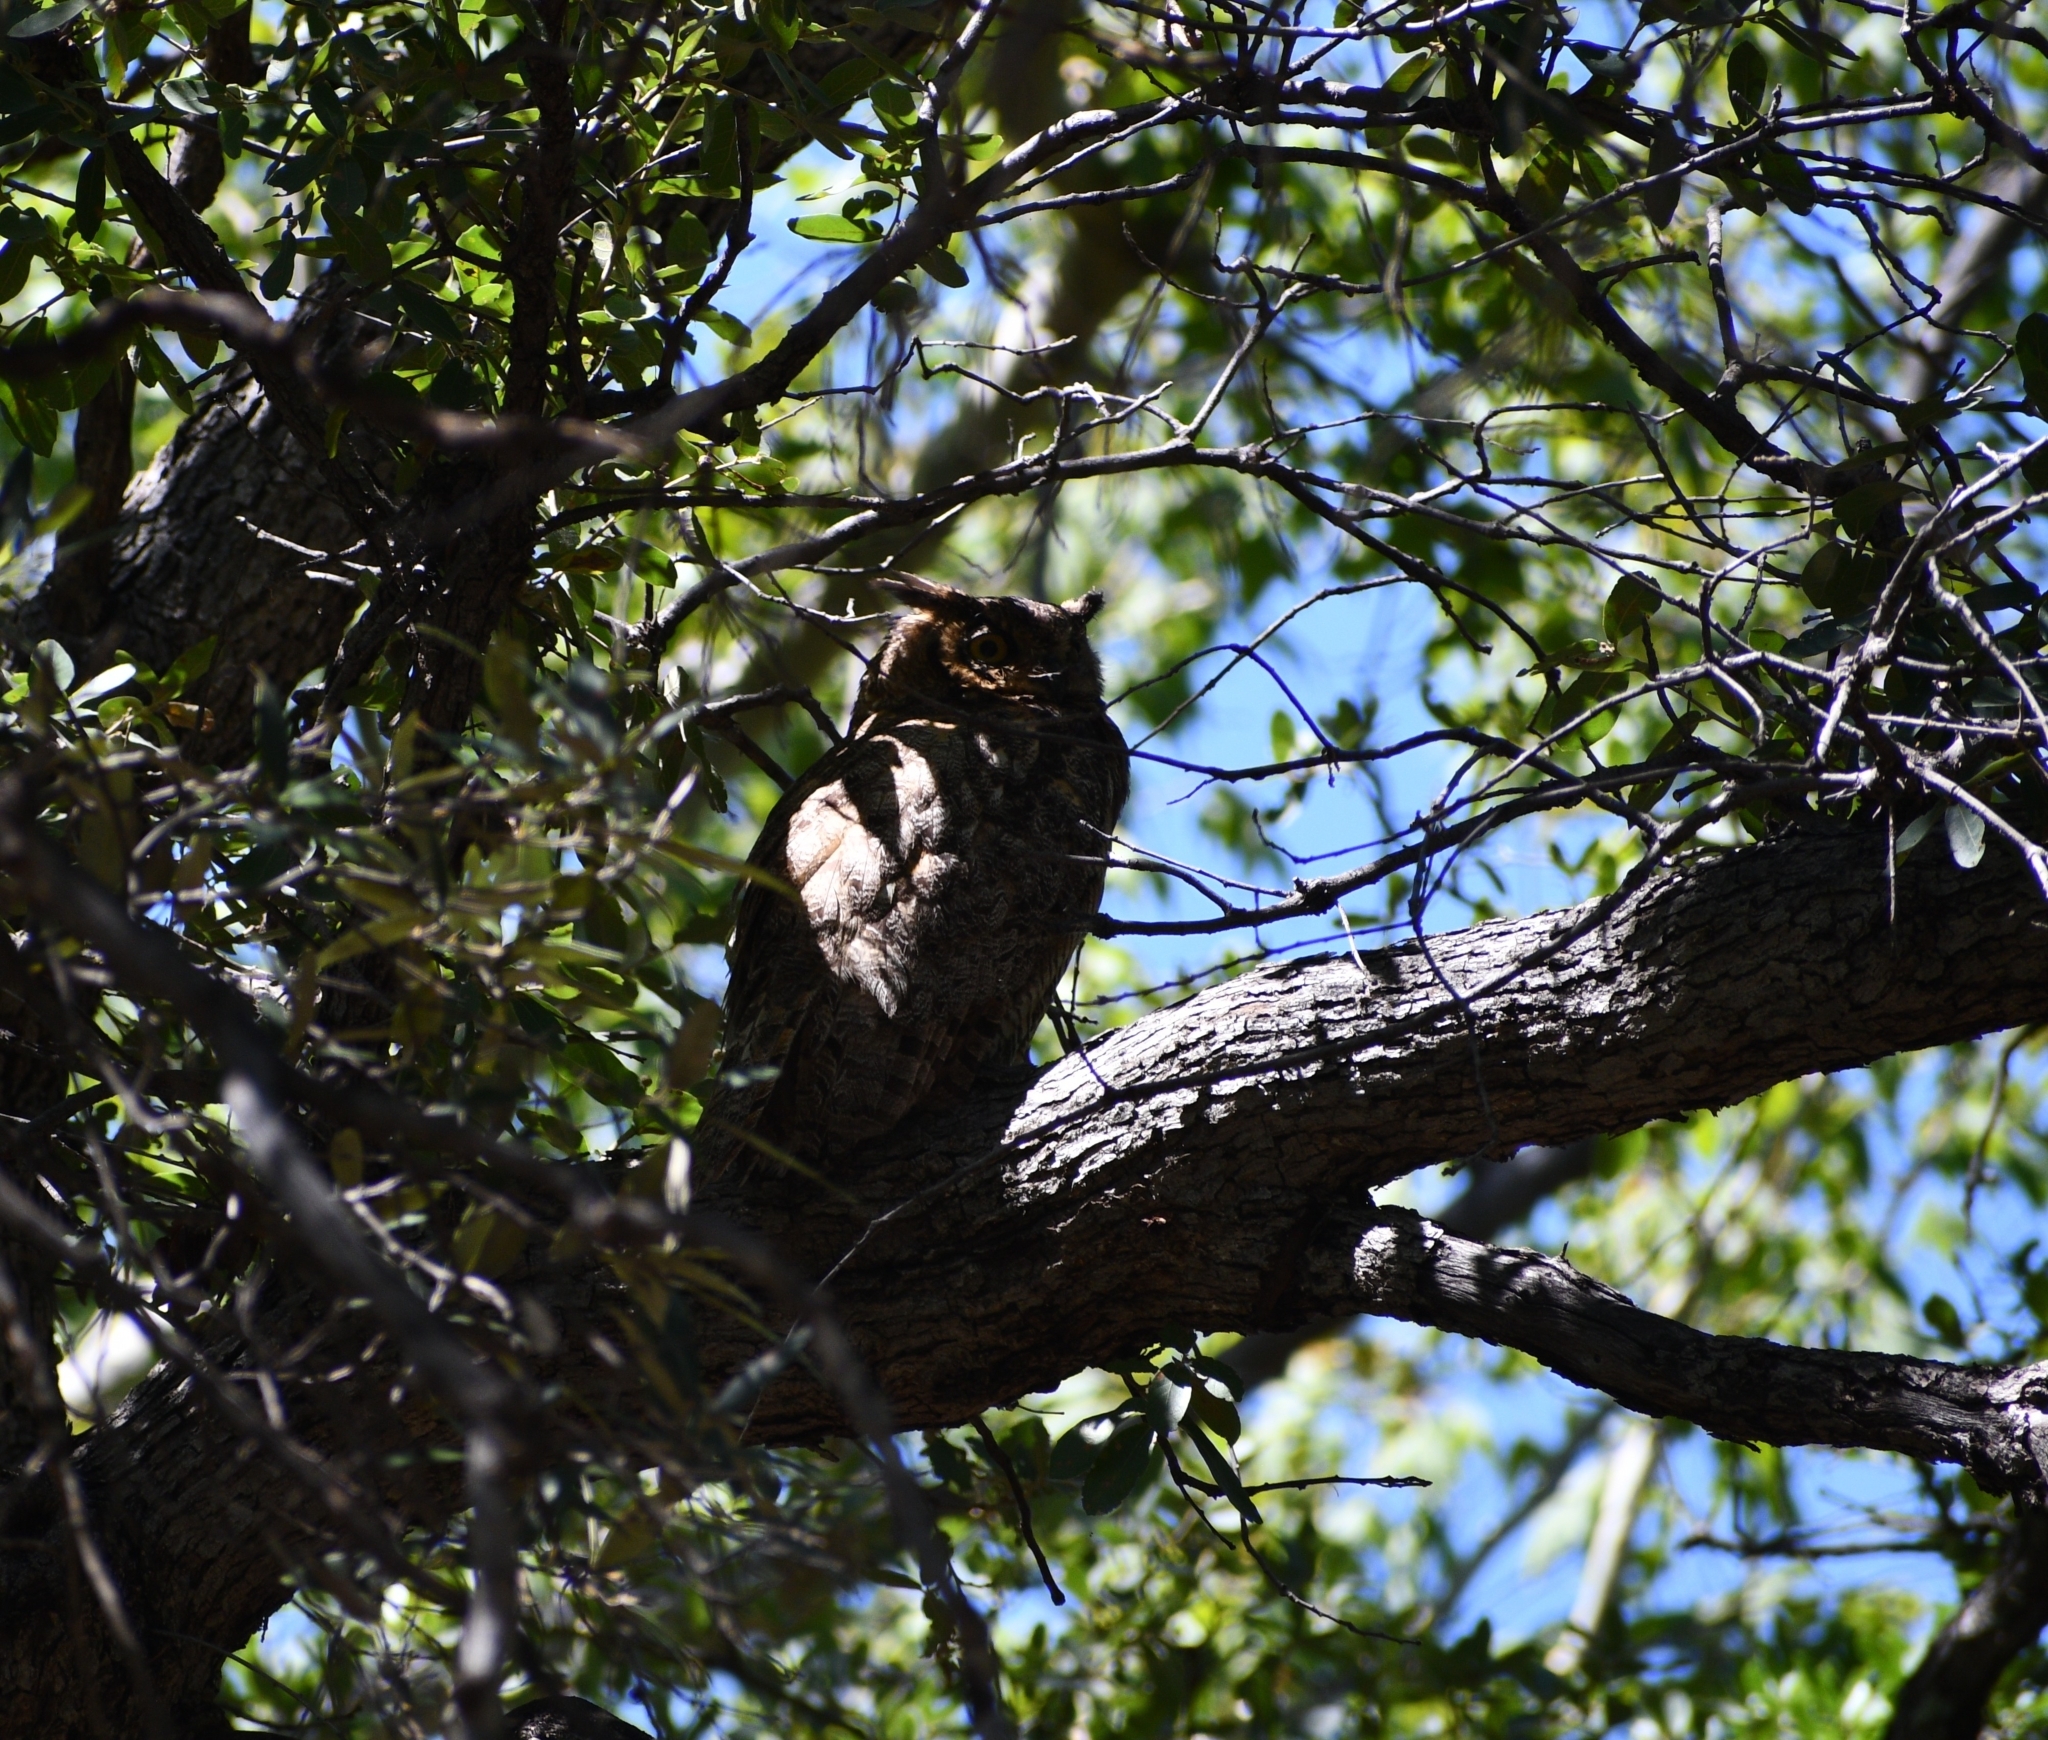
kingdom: Animalia
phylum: Chordata
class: Aves
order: Strigiformes
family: Strigidae
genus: Bubo
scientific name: Bubo virginianus
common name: Great horned owl
